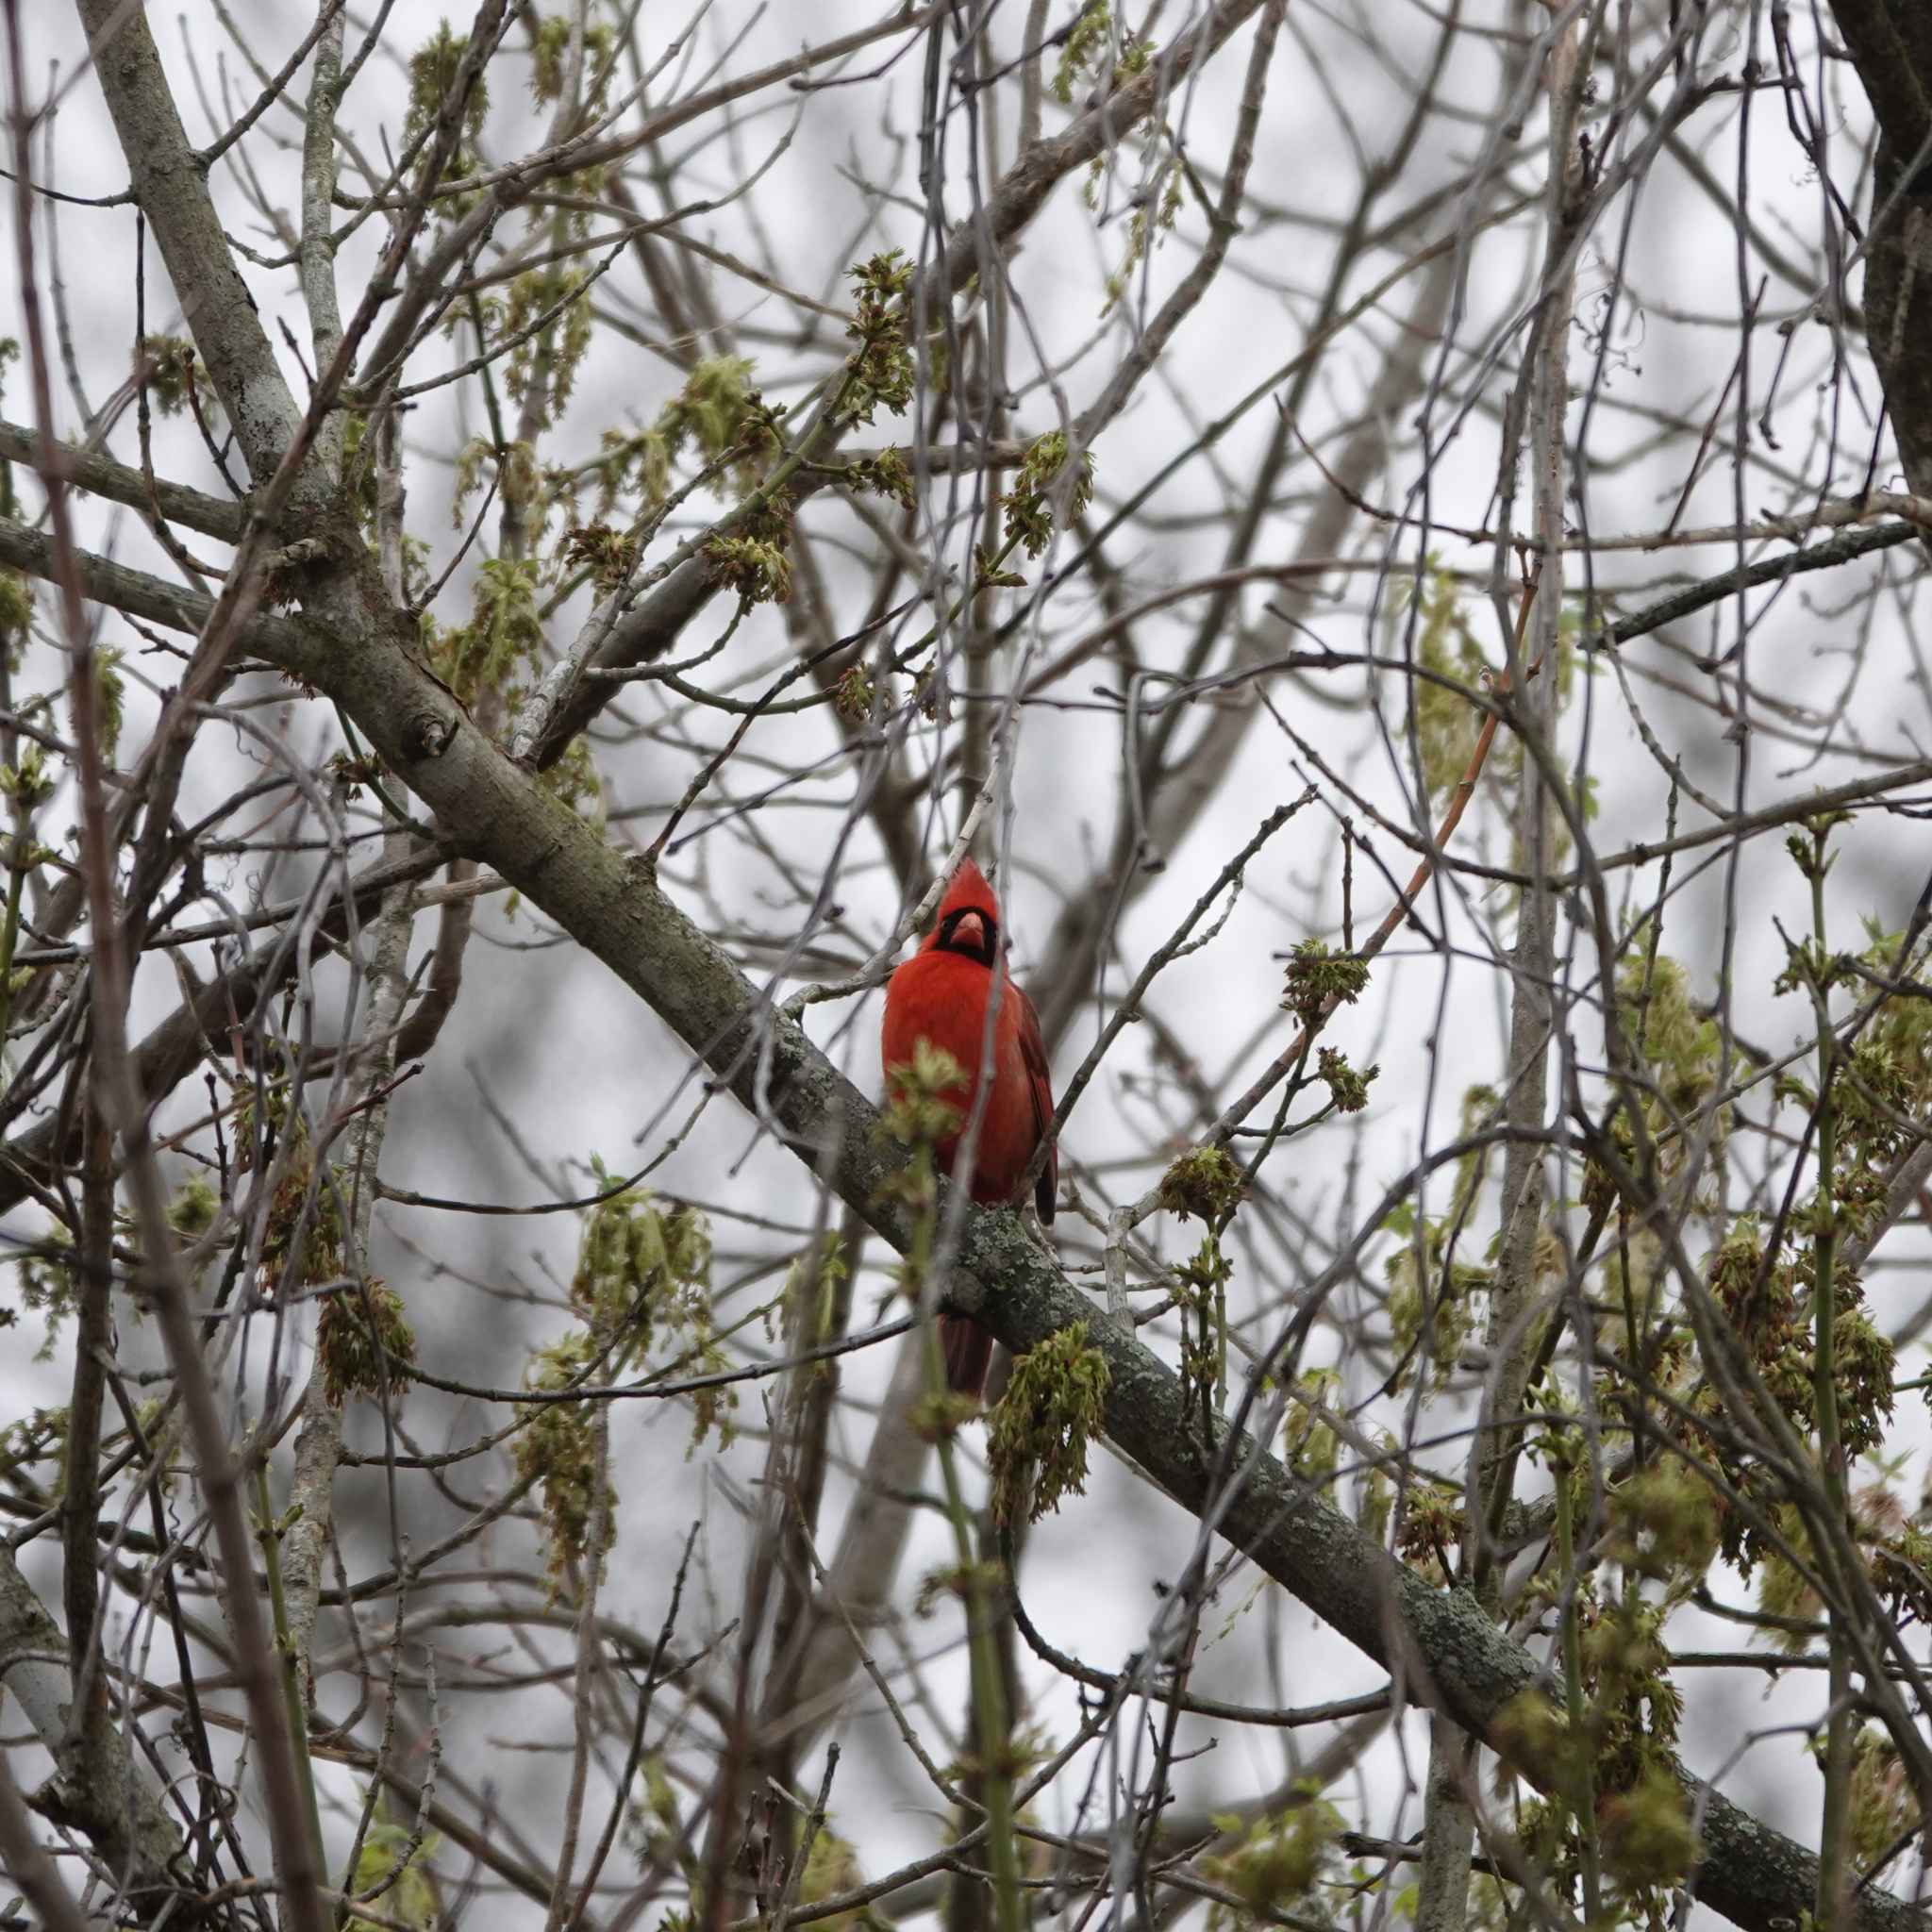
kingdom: Animalia
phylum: Chordata
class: Aves
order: Passeriformes
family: Cardinalidae
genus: Cardinalis
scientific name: Cardinalis cardinalis
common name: Northern cardinal
